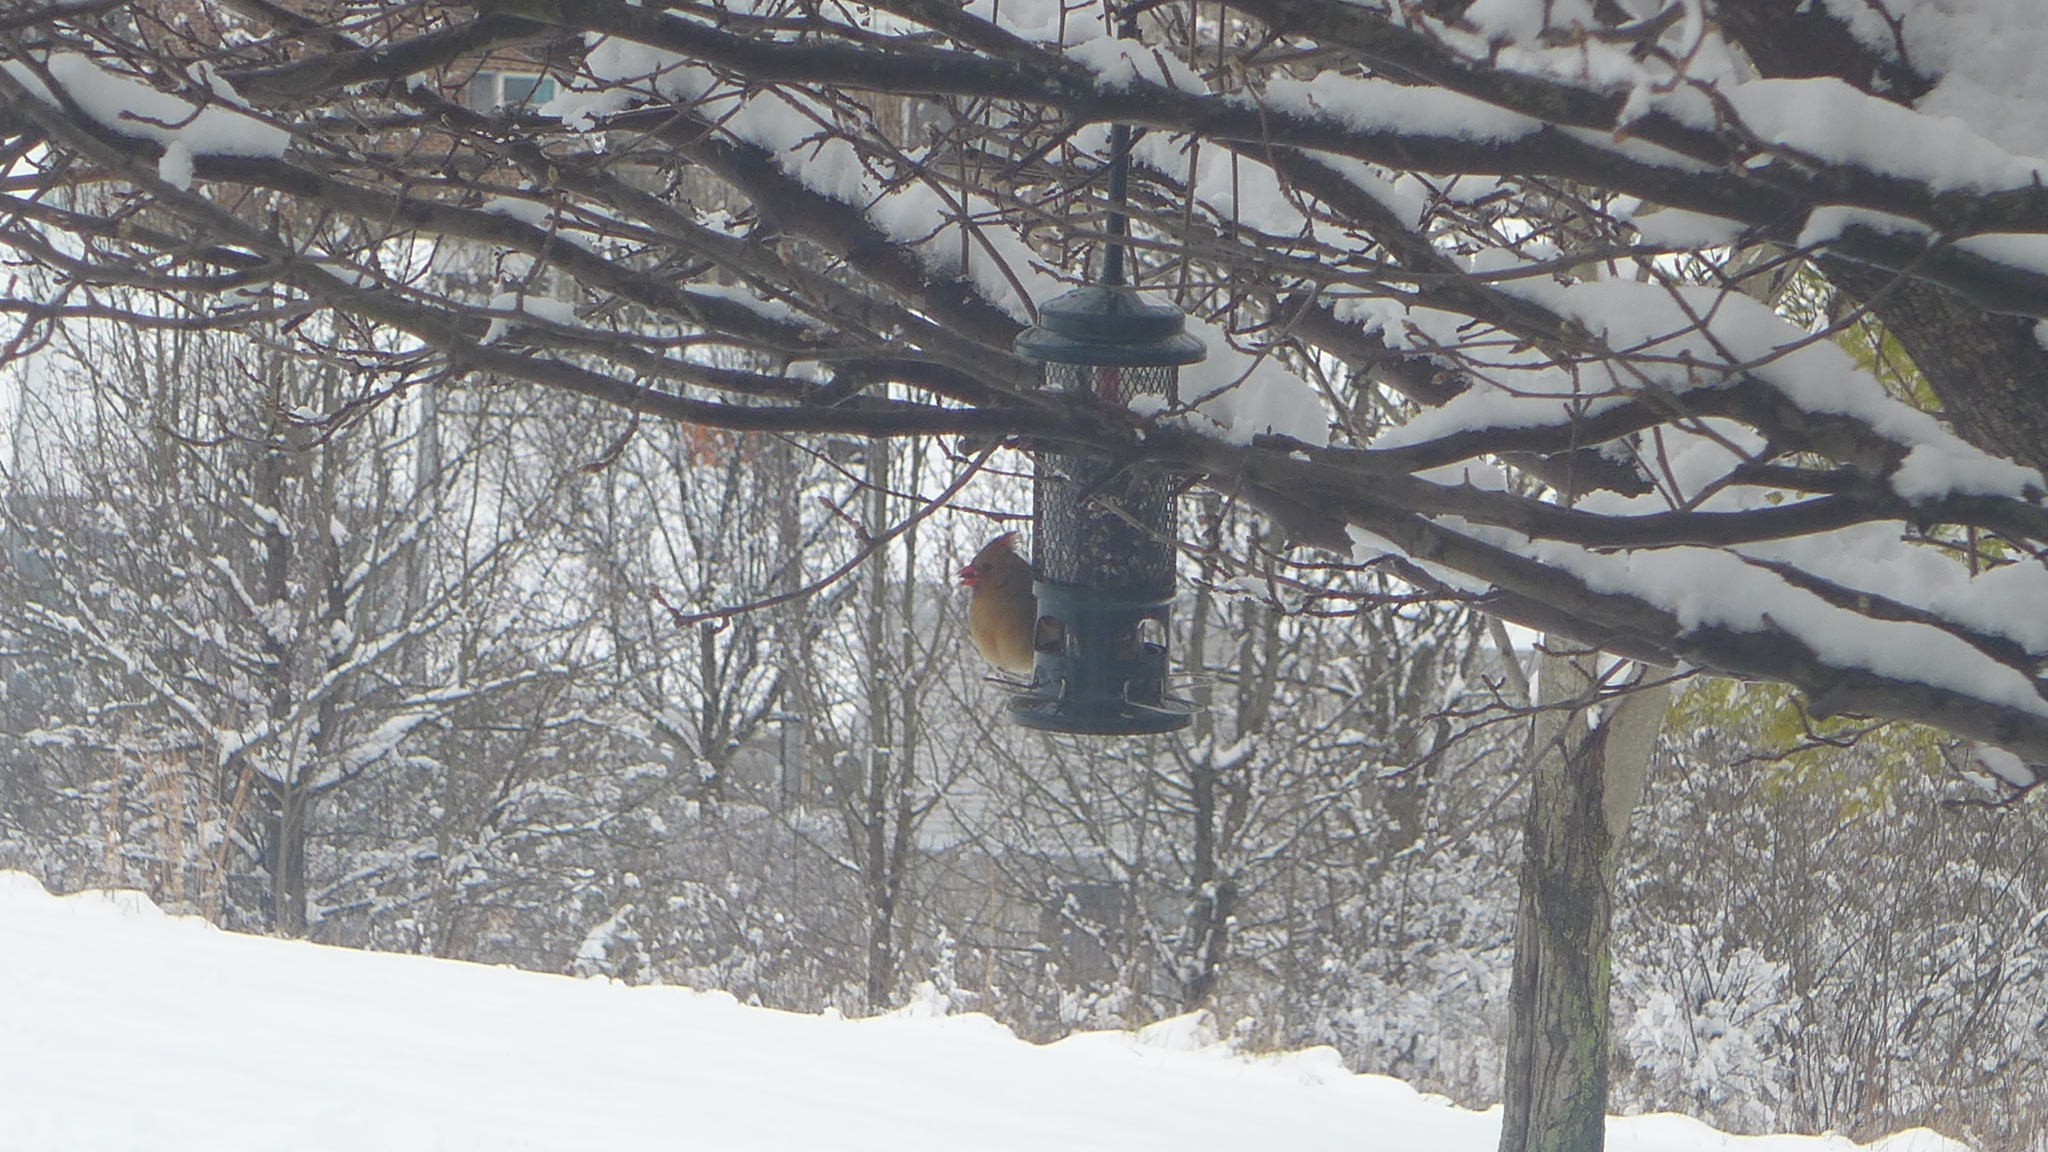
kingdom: Animalia
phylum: Chordata
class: Aves
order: Passeriformes
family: Cardinalidae
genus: Cardinalis
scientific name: Cardinalis cardinalis
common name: Northern cardinal
